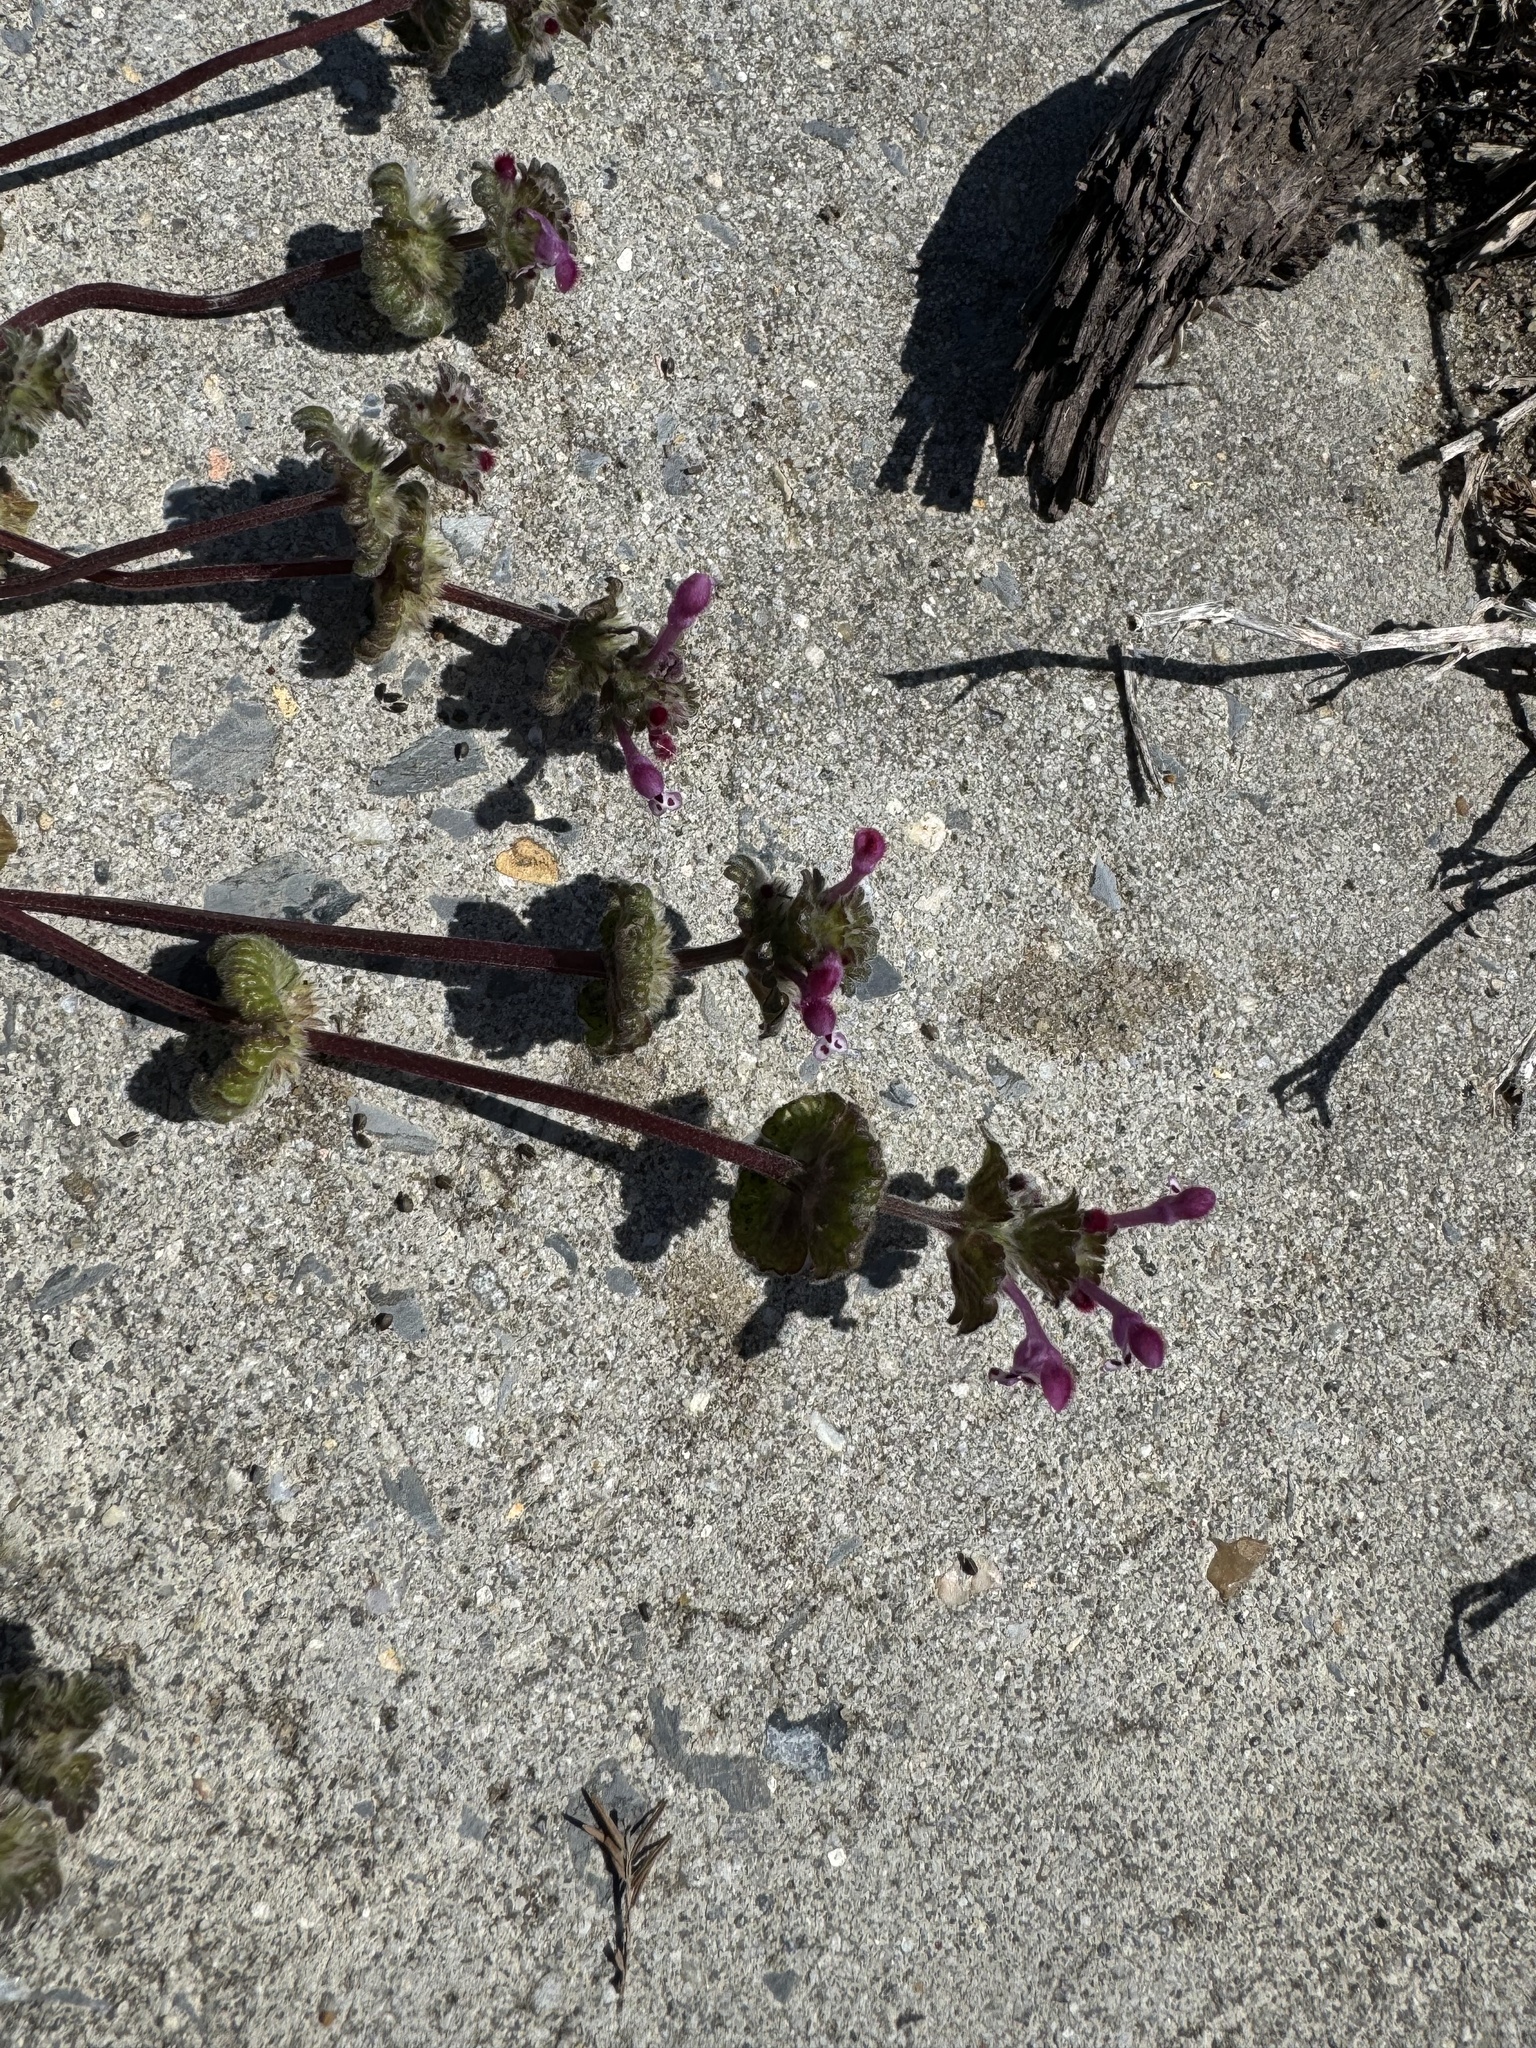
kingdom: Plantae
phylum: Tracheophyta
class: Magnoliopsida
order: Lamiales
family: Lamiaceae
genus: Lamium
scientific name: Lamium amplexicaule
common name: Henbit dead-nettle
